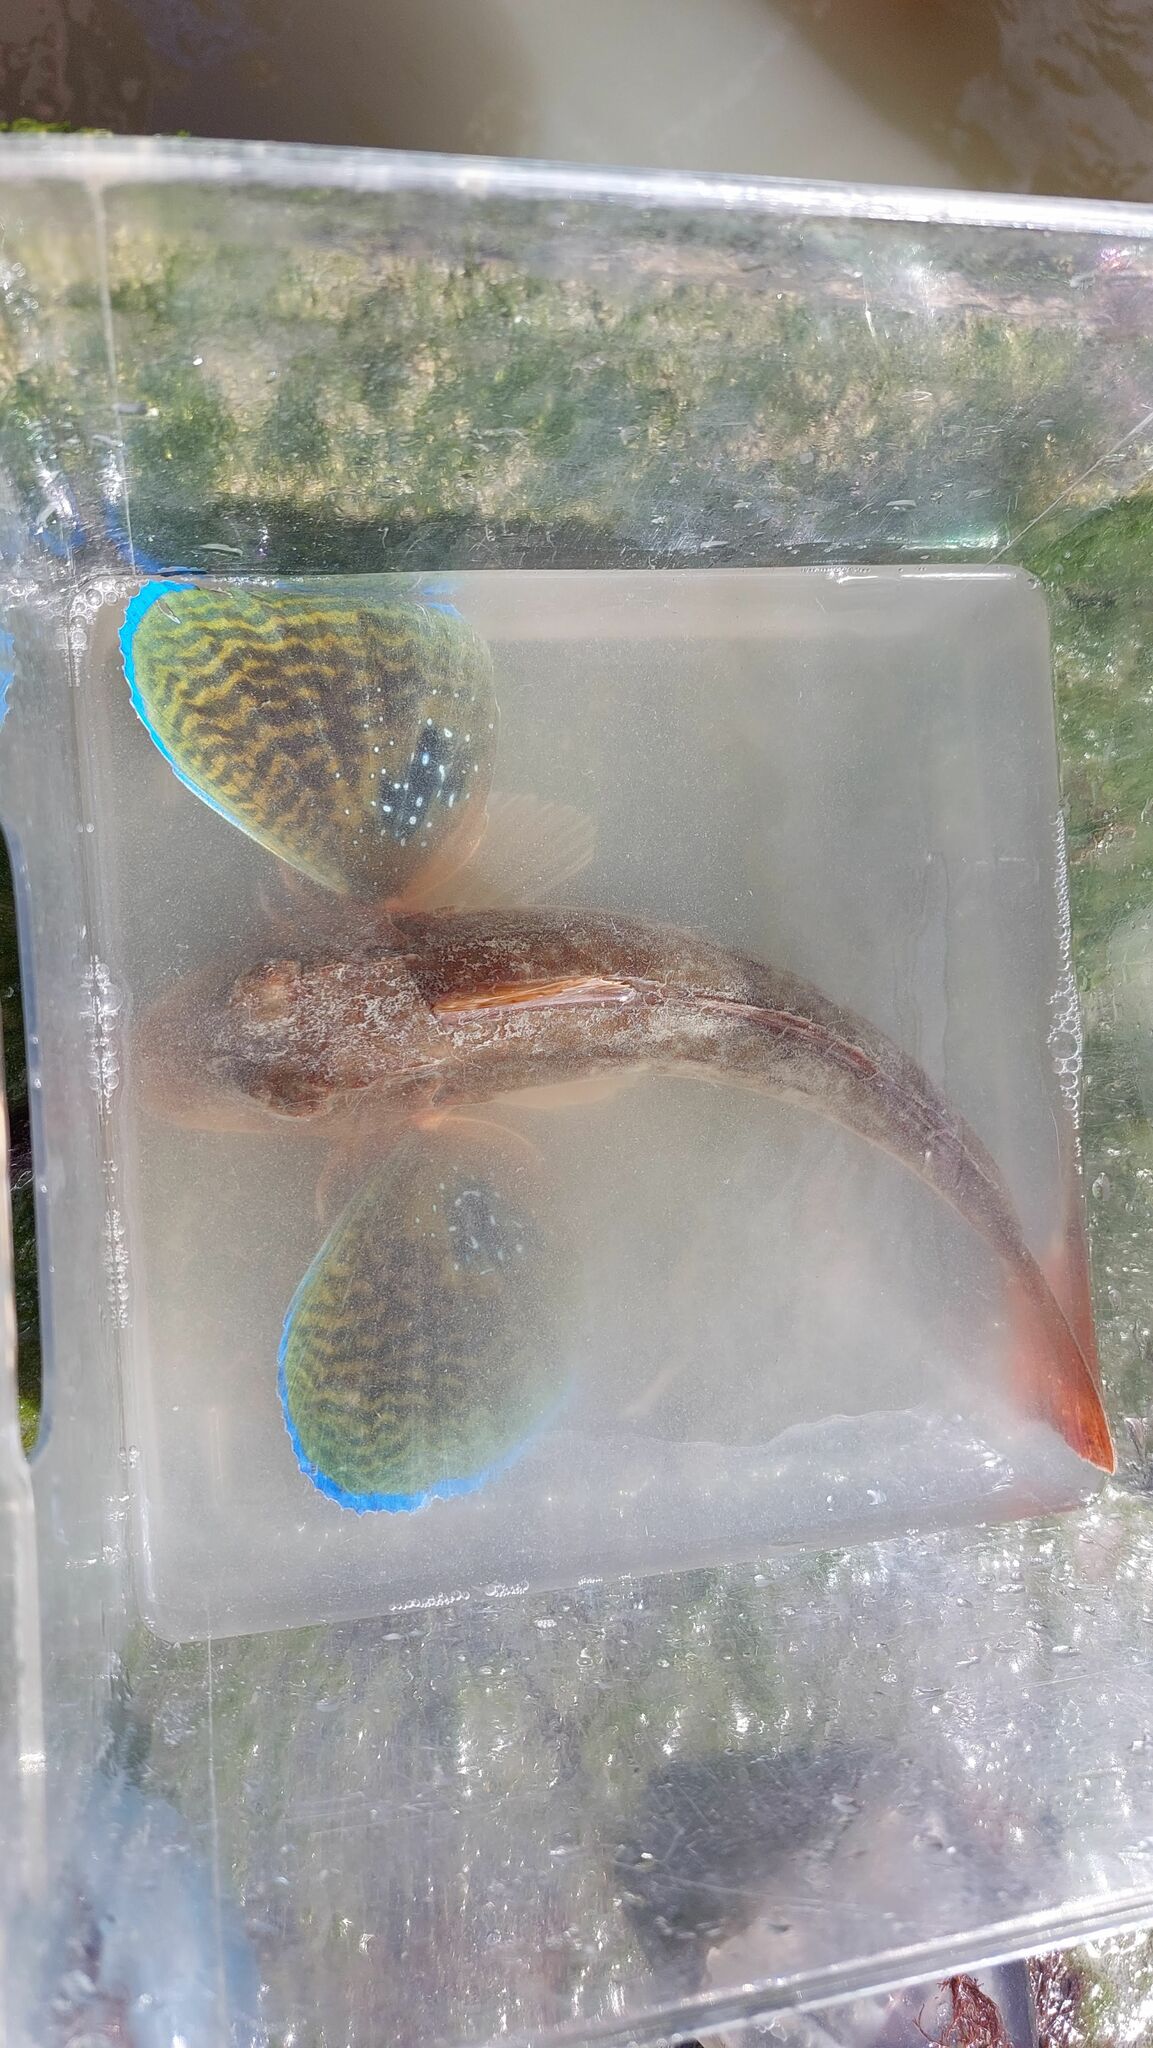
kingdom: Animalia
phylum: Chordata
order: Scorpaeniformes
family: Triglidae
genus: Chelidonichthys
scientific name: Chelidonichthys lucerna
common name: Tub gurnard
